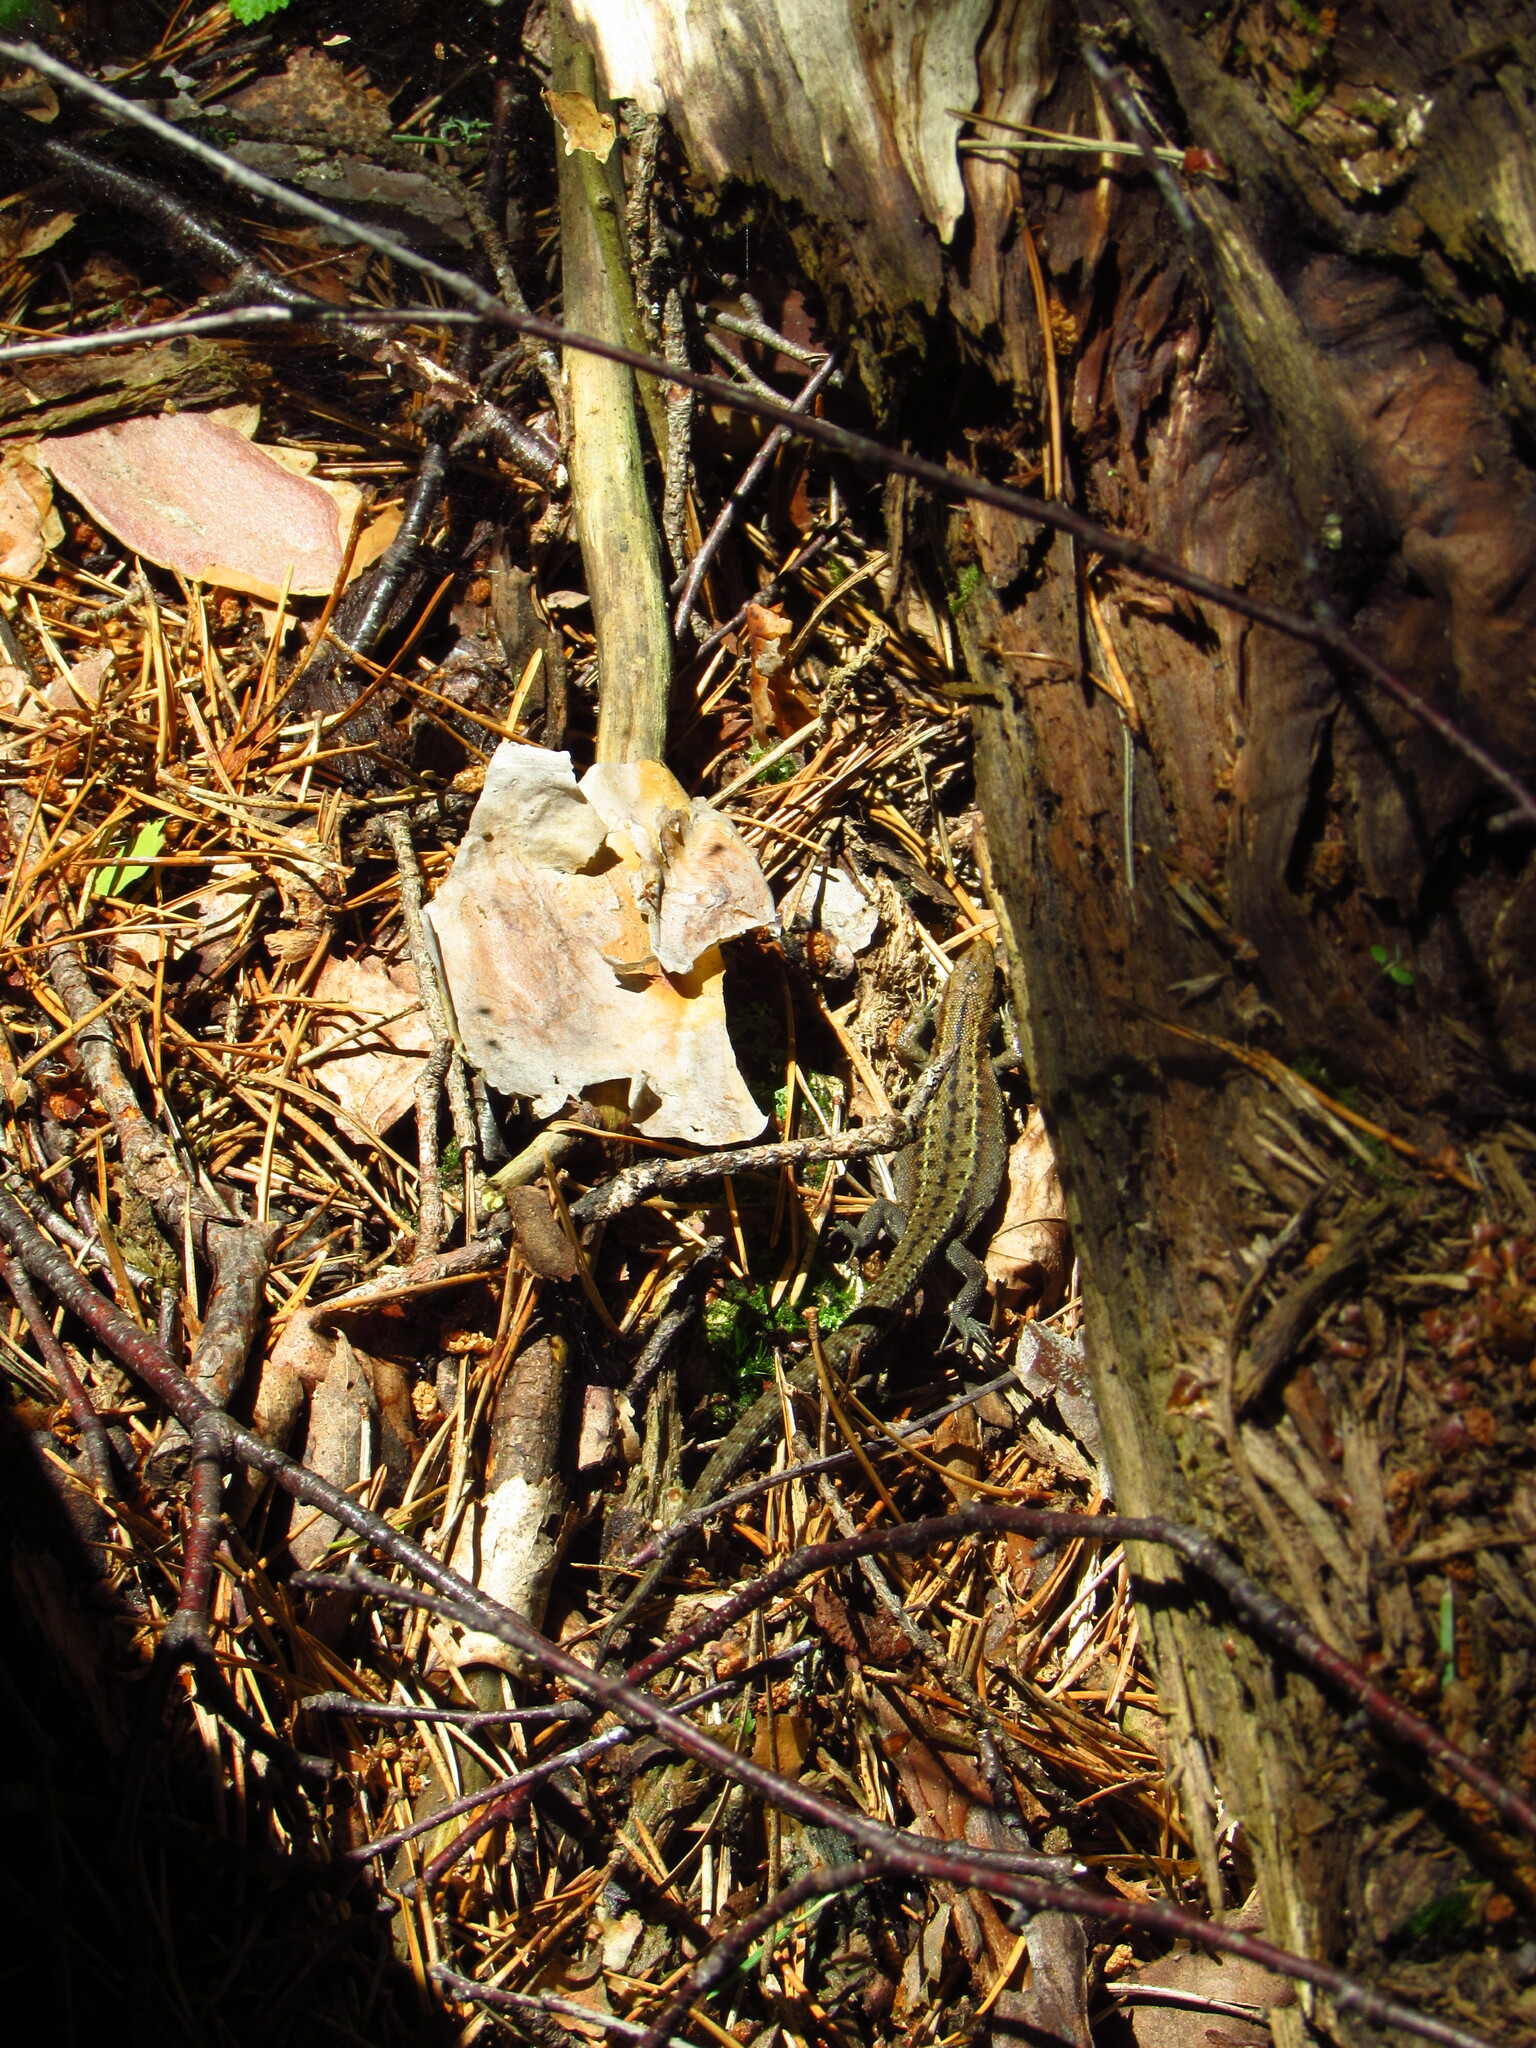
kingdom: Animalia
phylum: Chordata
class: Squamata
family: Lacertidae
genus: Zootoca
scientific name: Zootoca vivipara
